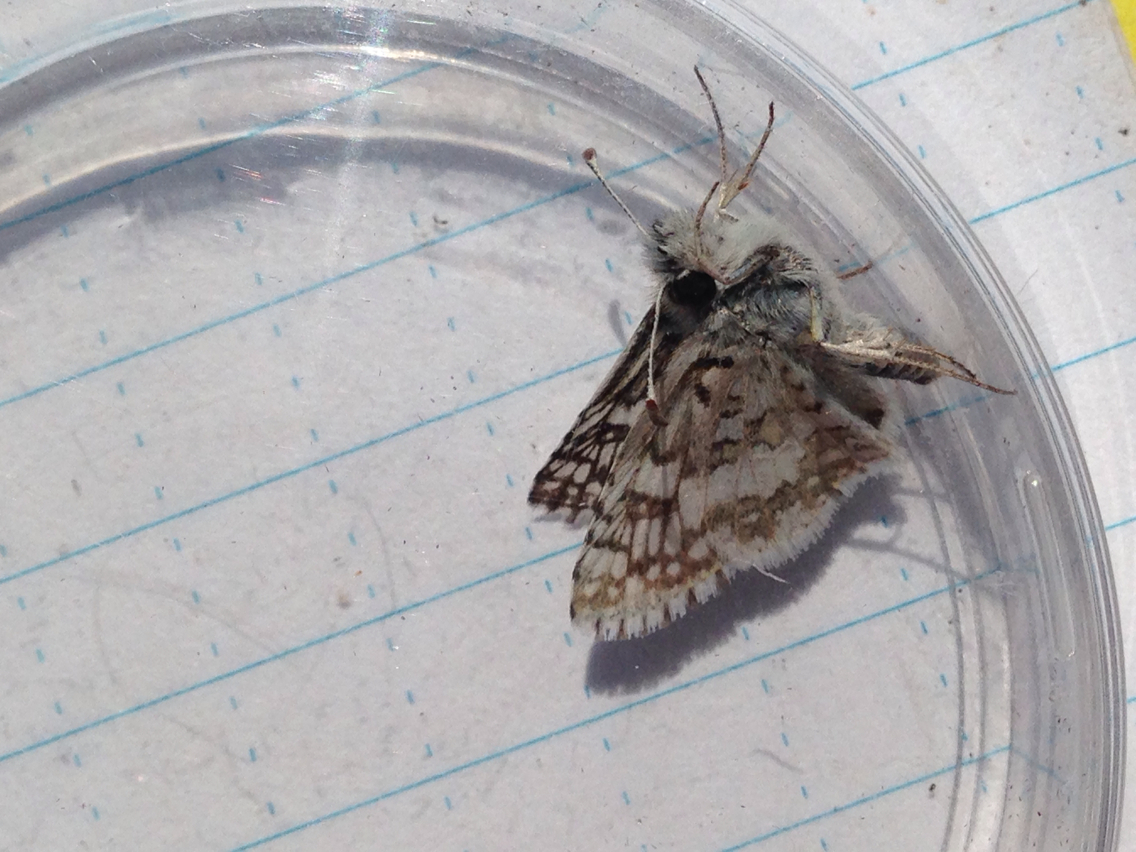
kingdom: Animalia
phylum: Arthropoda
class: Insecta
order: Lepidoptera
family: Hesperiidae
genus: Burnsius
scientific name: Burnsius communis
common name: Common checkered-skipper
